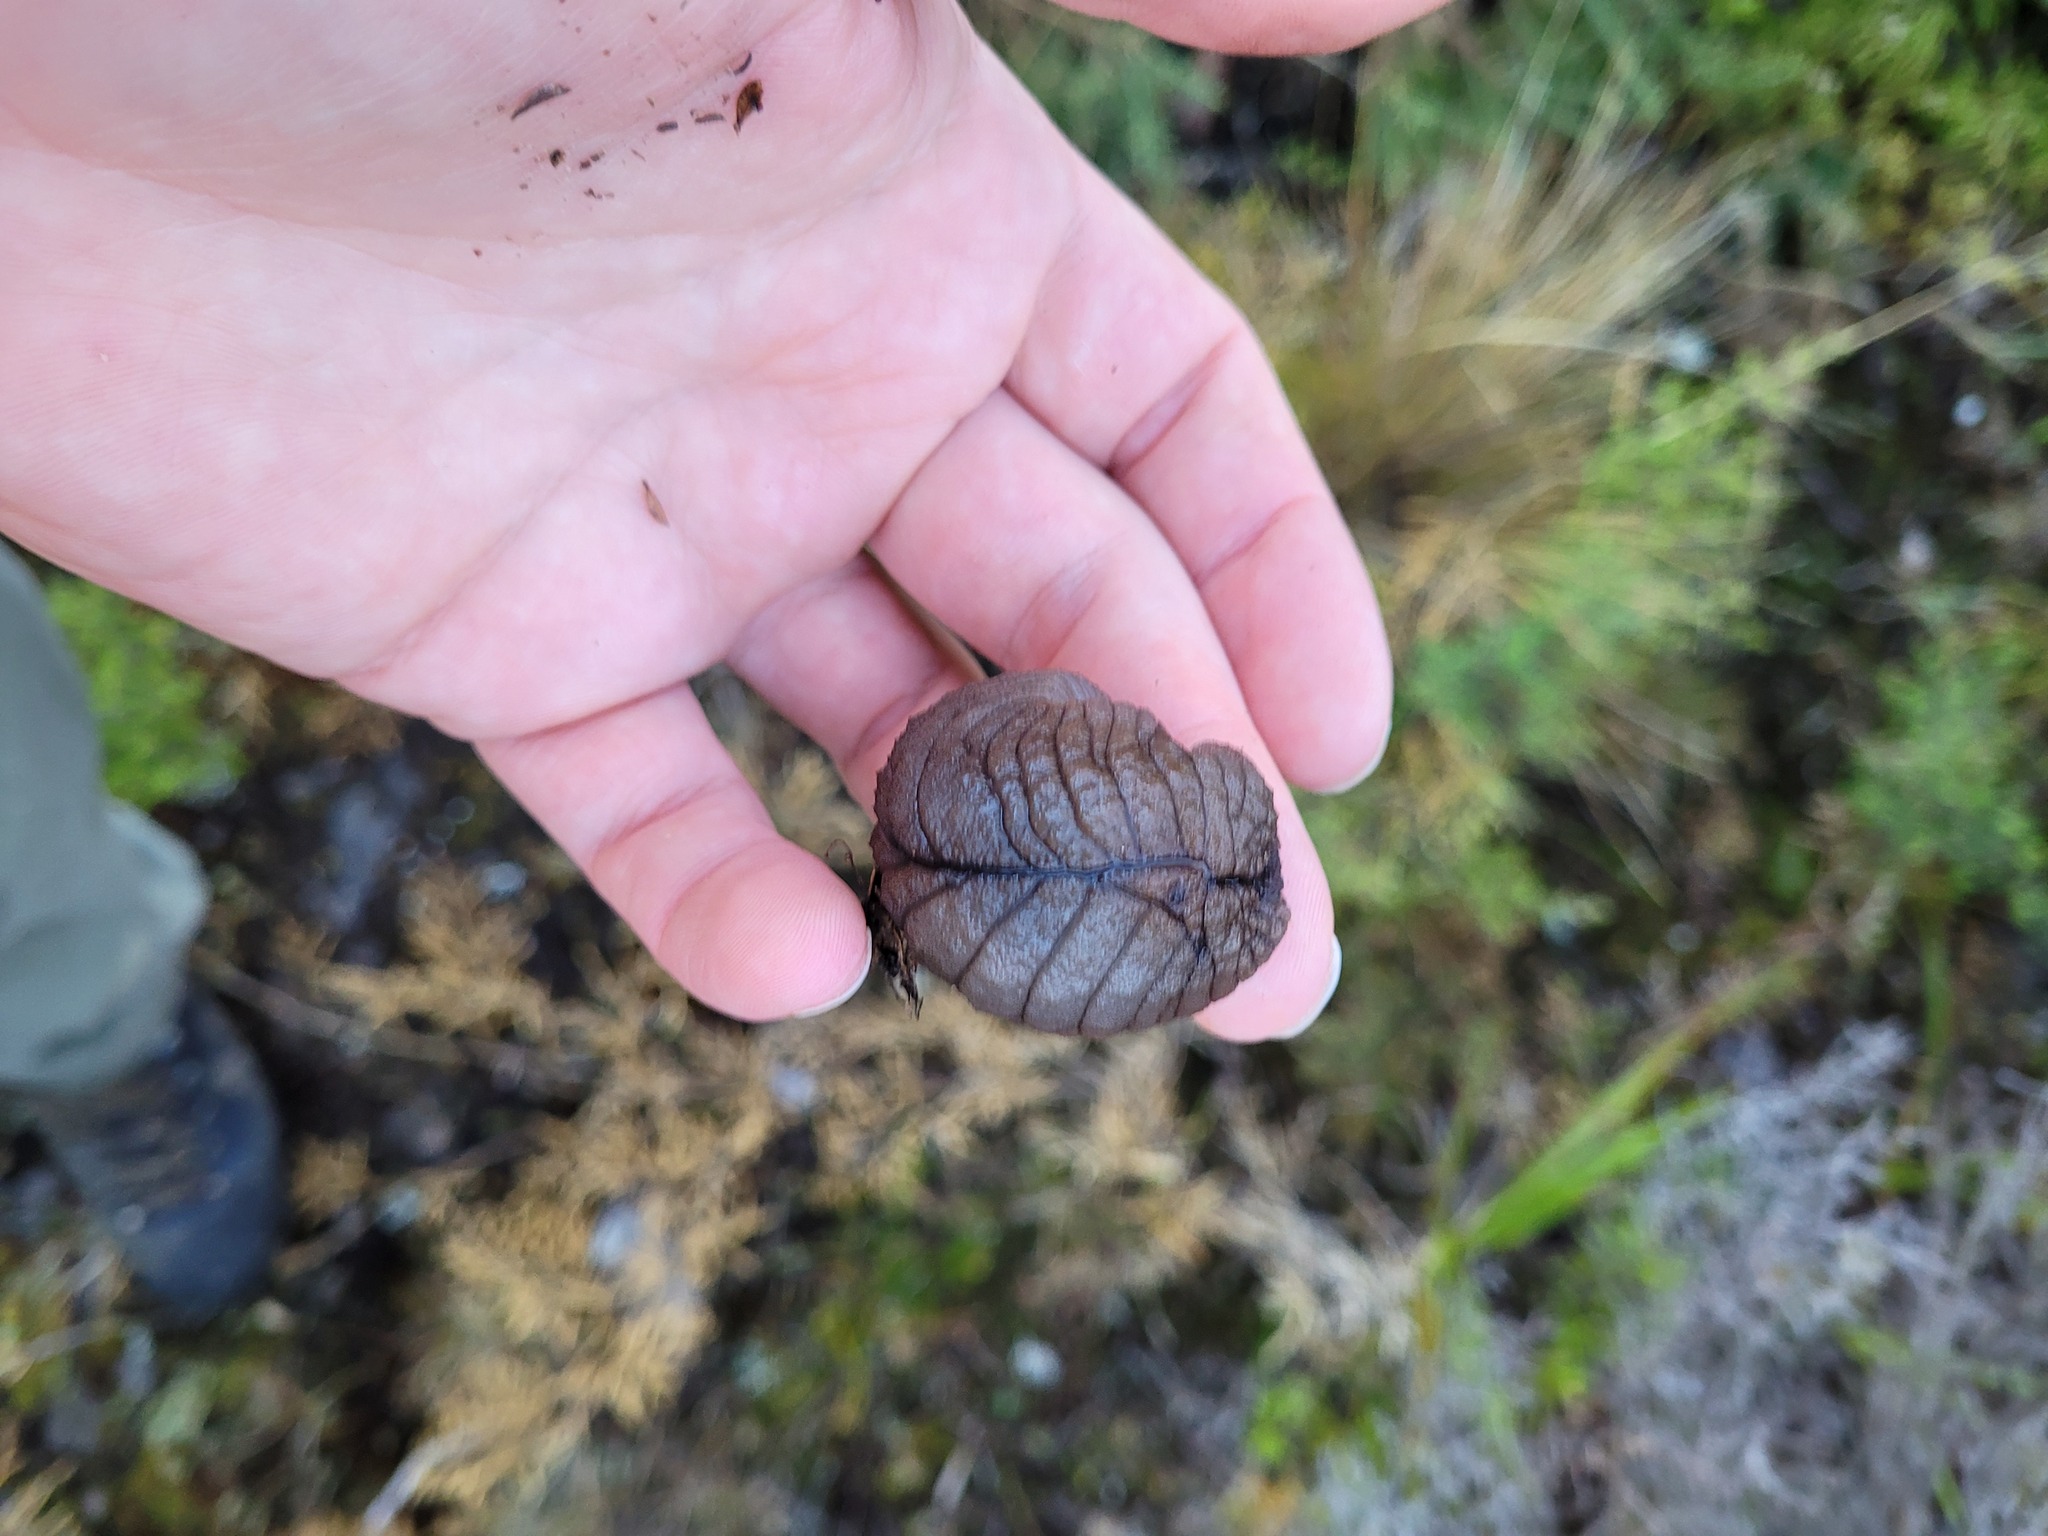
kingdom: Animalia
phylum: Mollusca
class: Gastropoda
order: Stylommatophora
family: Athoracophoridae
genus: Pseudaneitea
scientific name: Pseudaneitea gigantea
